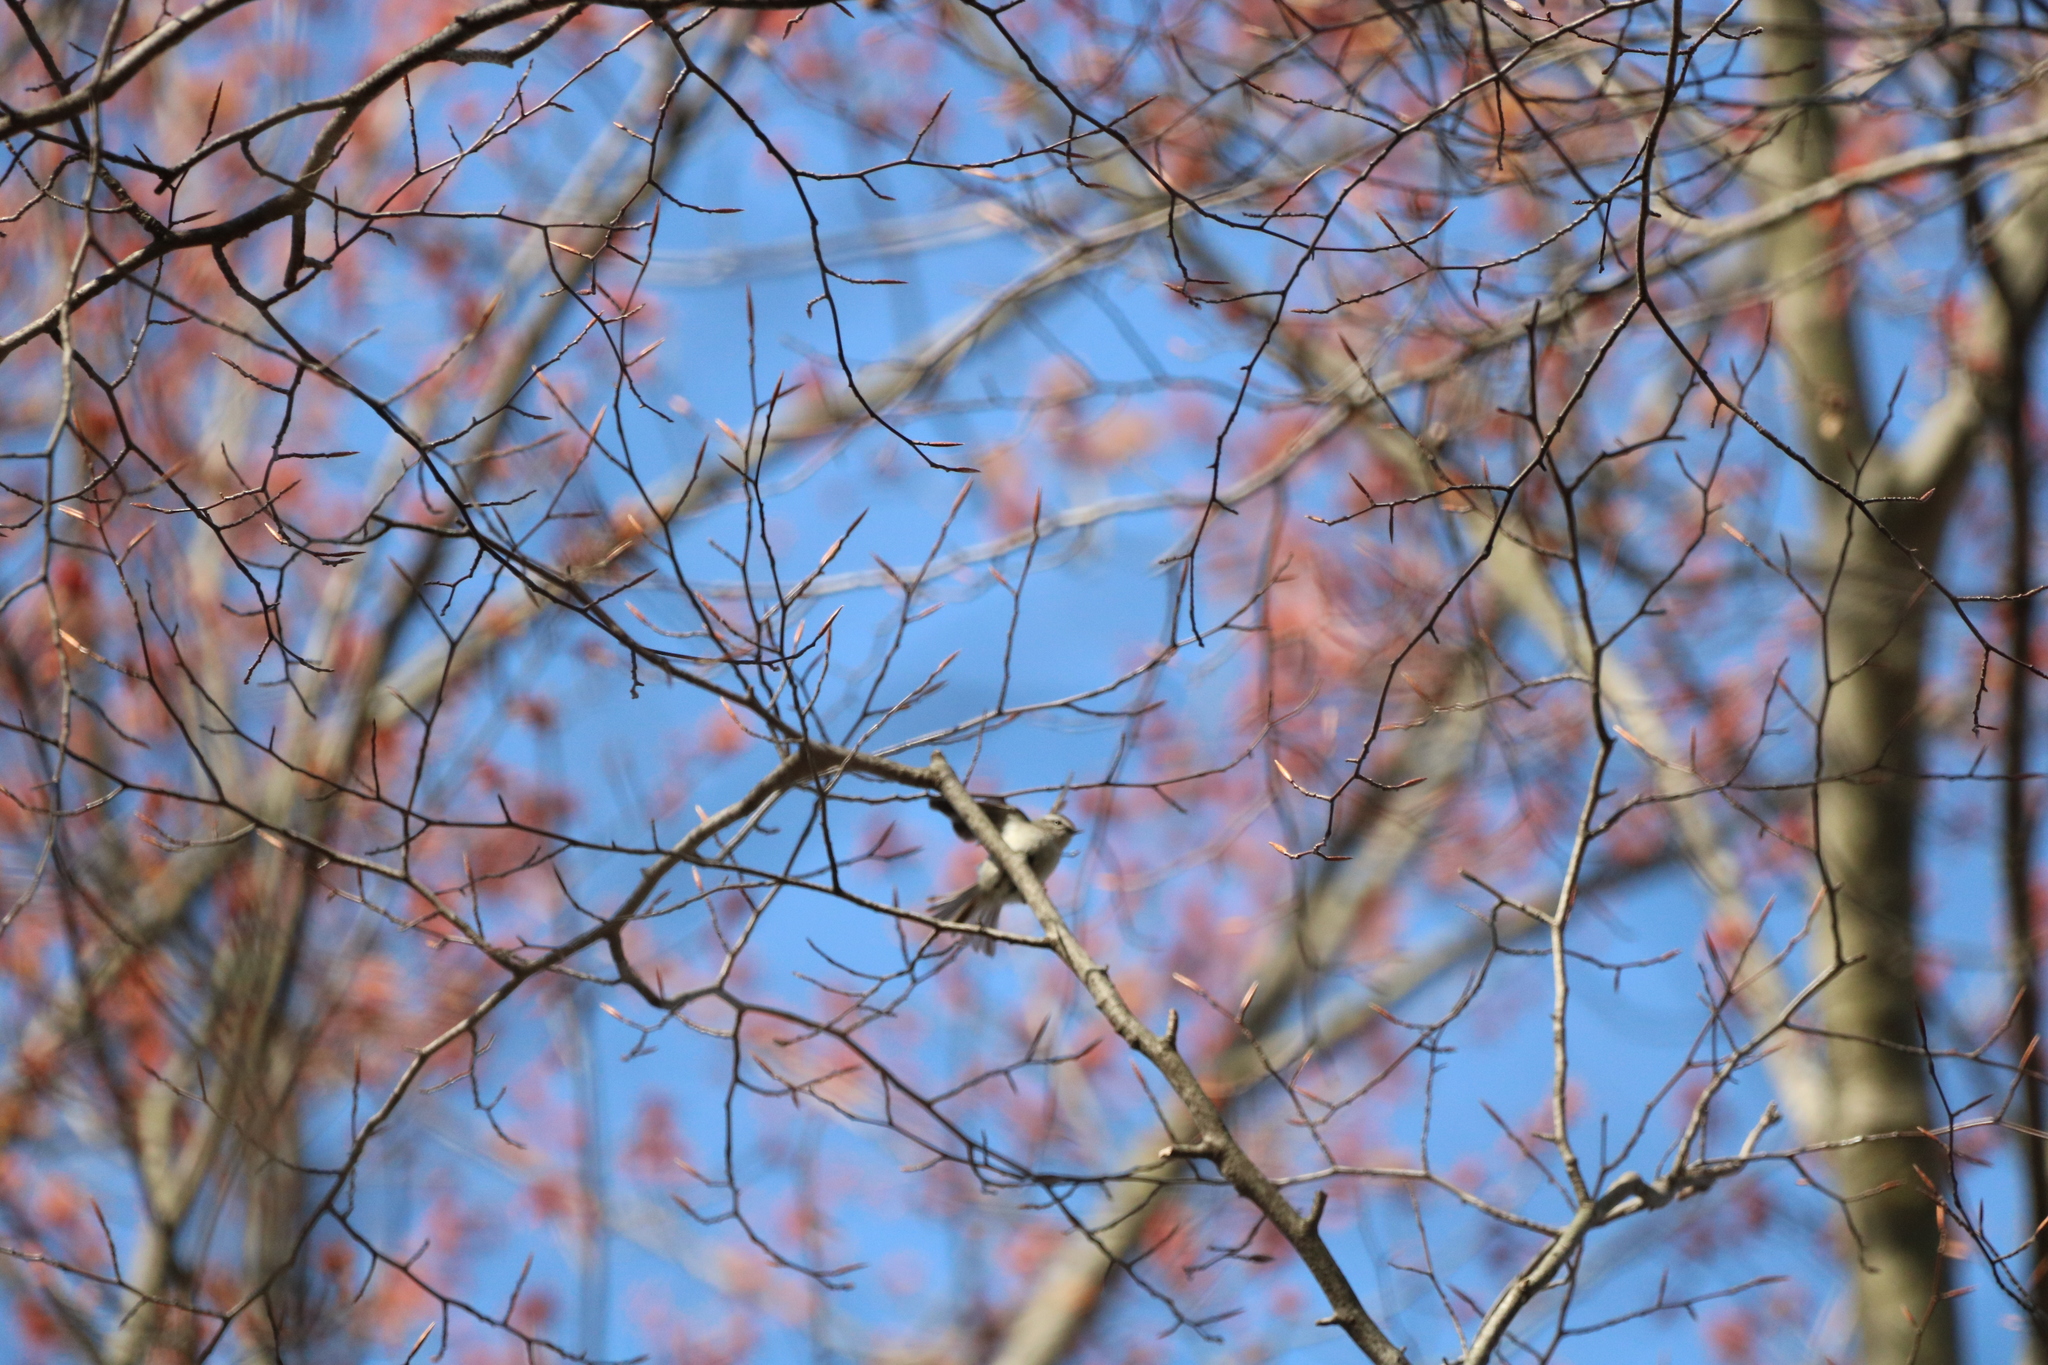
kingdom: Animalia
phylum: Chordata
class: Aves
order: Passeriformes
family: Regulidae
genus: Regulus
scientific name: Regulus satrapa
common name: Golden-crowned kinglet
